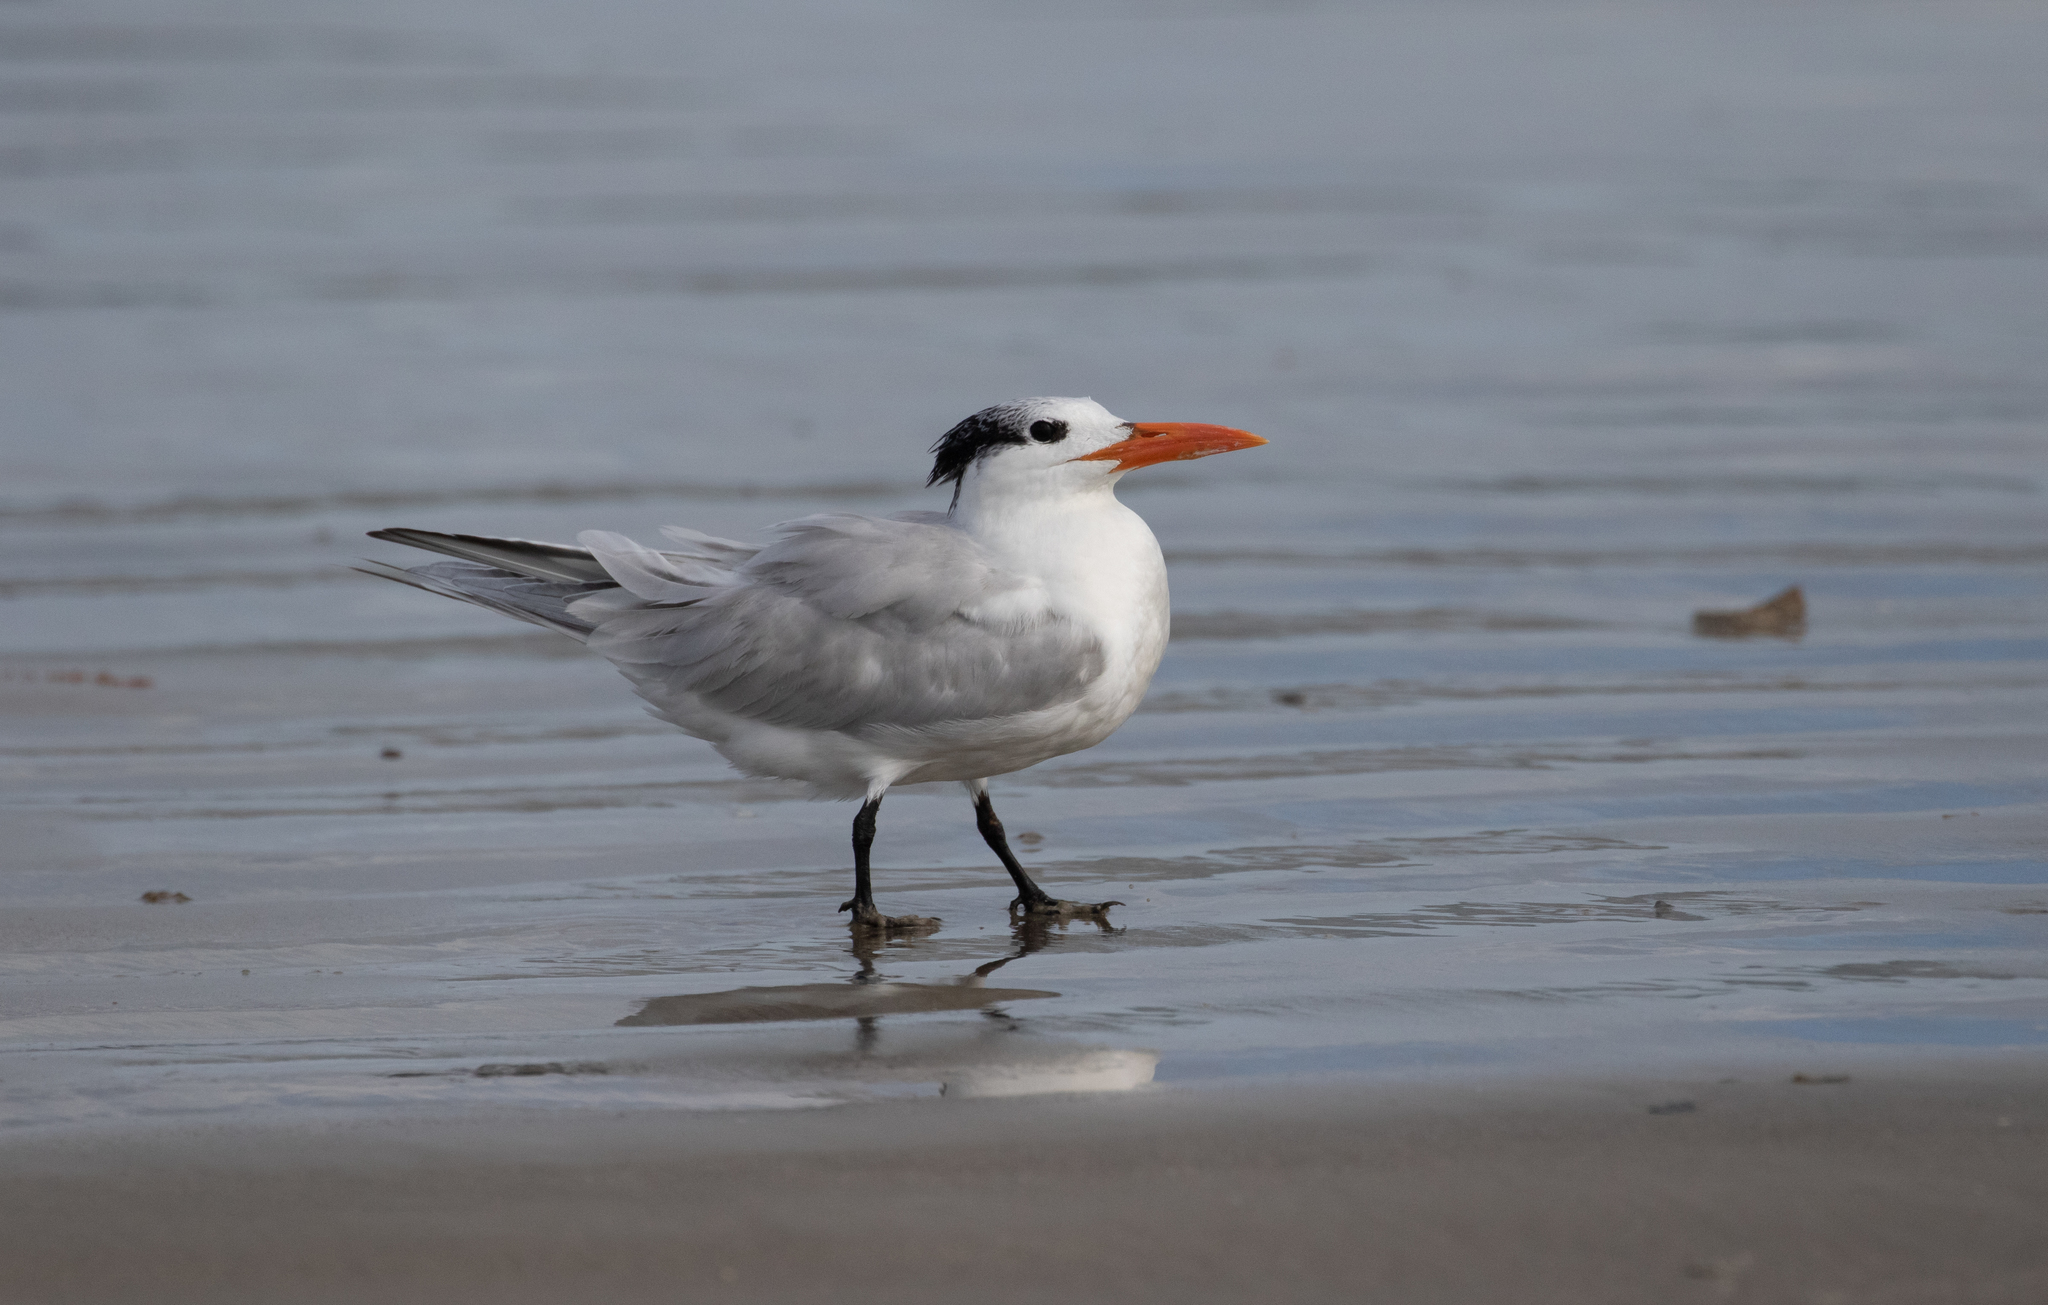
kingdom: Animalia
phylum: Chordata
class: Aves
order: Charadriiformes
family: Laridae
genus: Thalasseus
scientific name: Thalasseus maximus
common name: Royal tern
